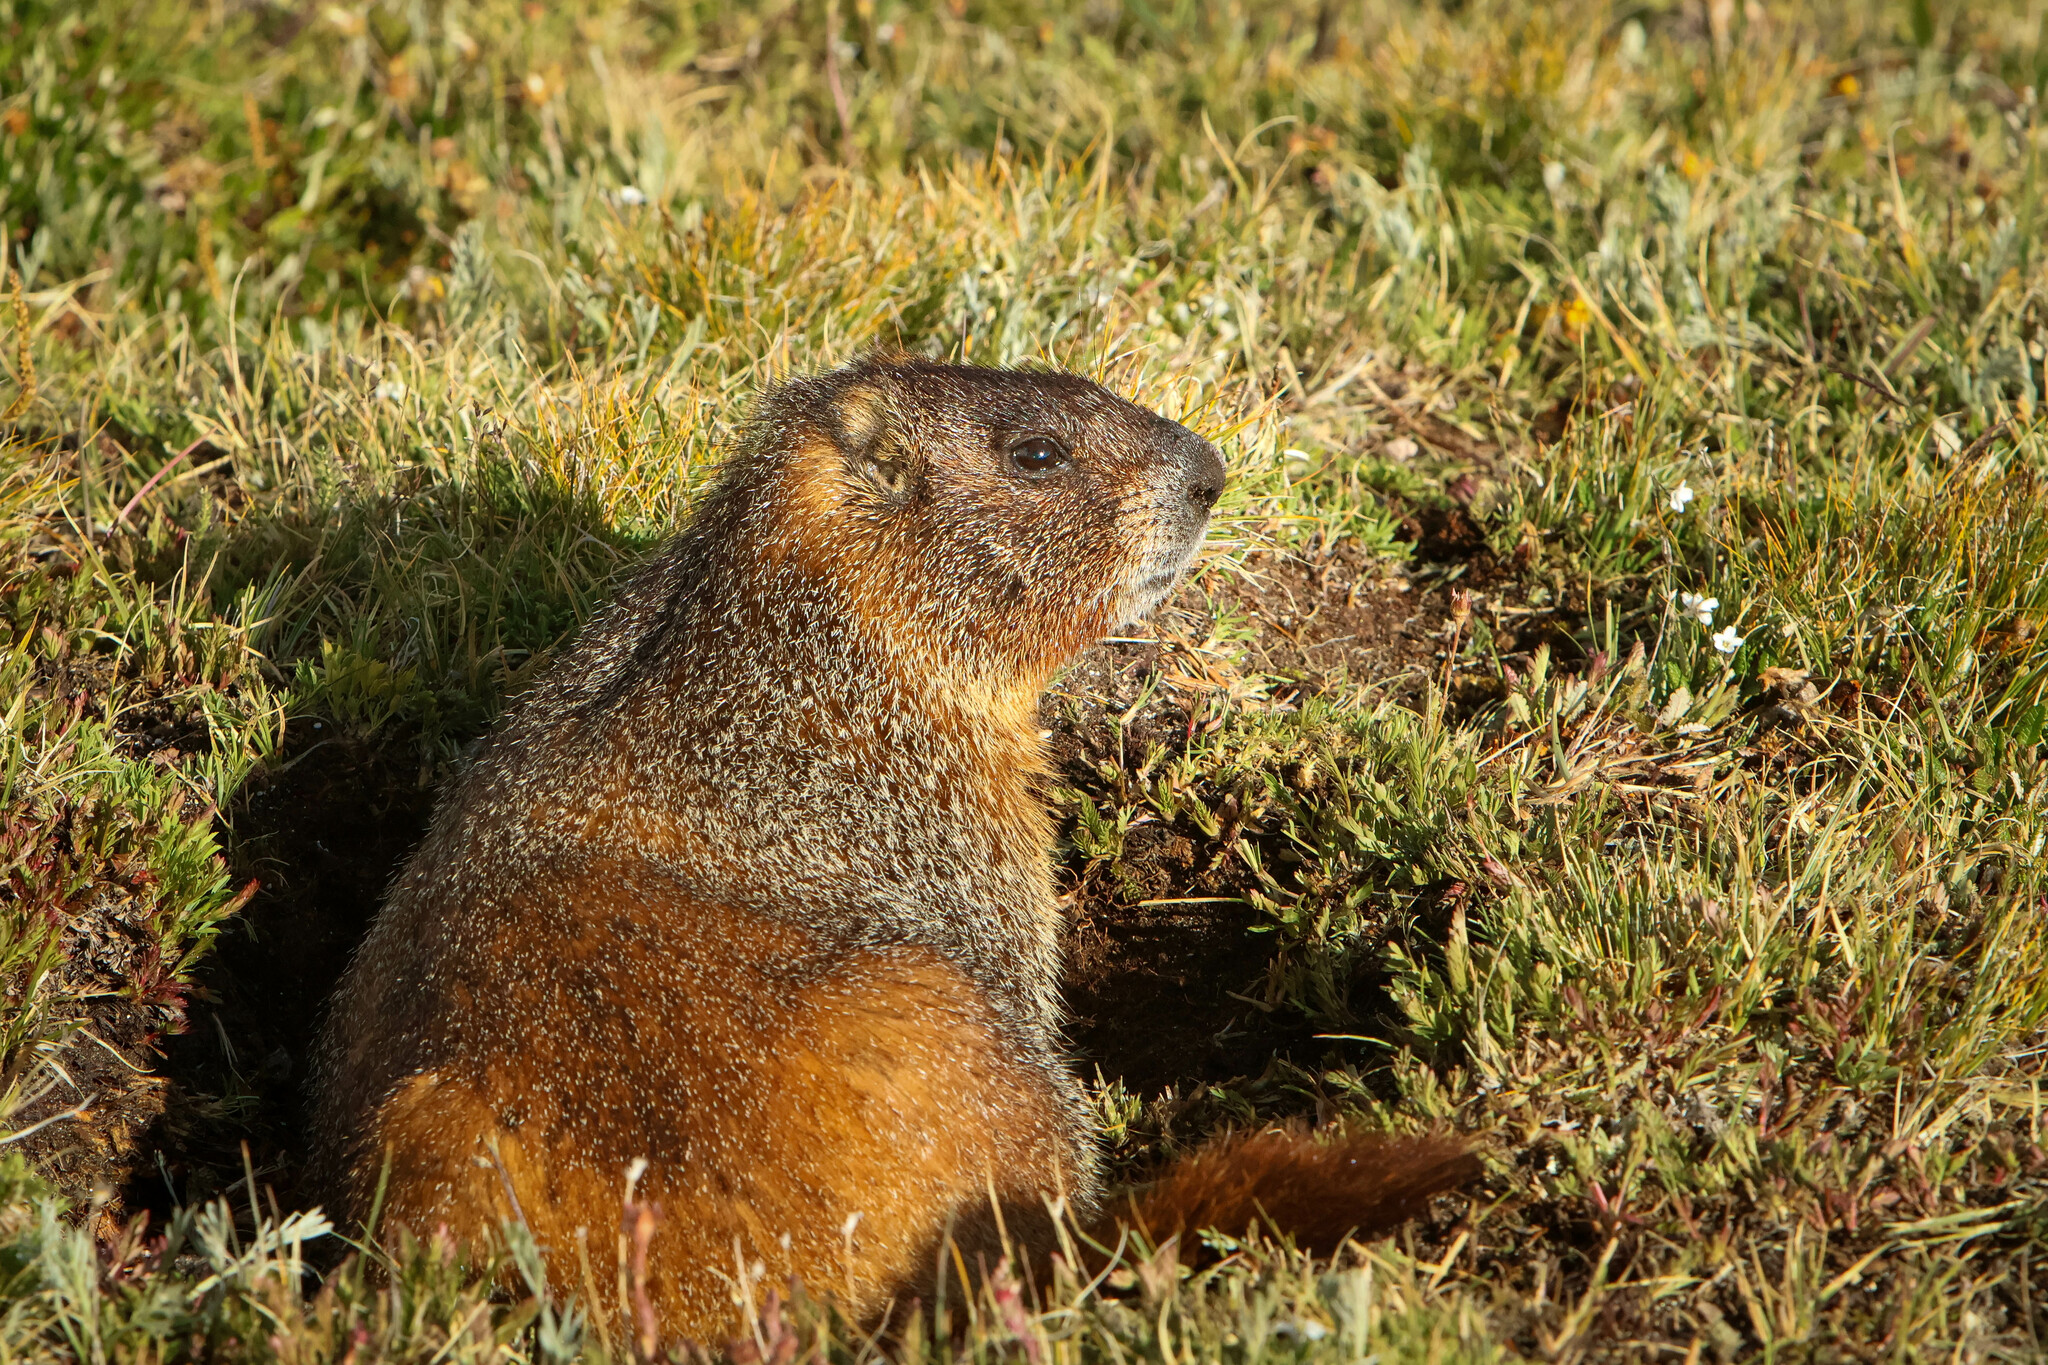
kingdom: Animalia
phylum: Chordata
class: Mammalia
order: Rodentia
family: Sciuridae
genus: Marmota
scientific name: Marmota flaviventris
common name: Yellow-bellied marmot
